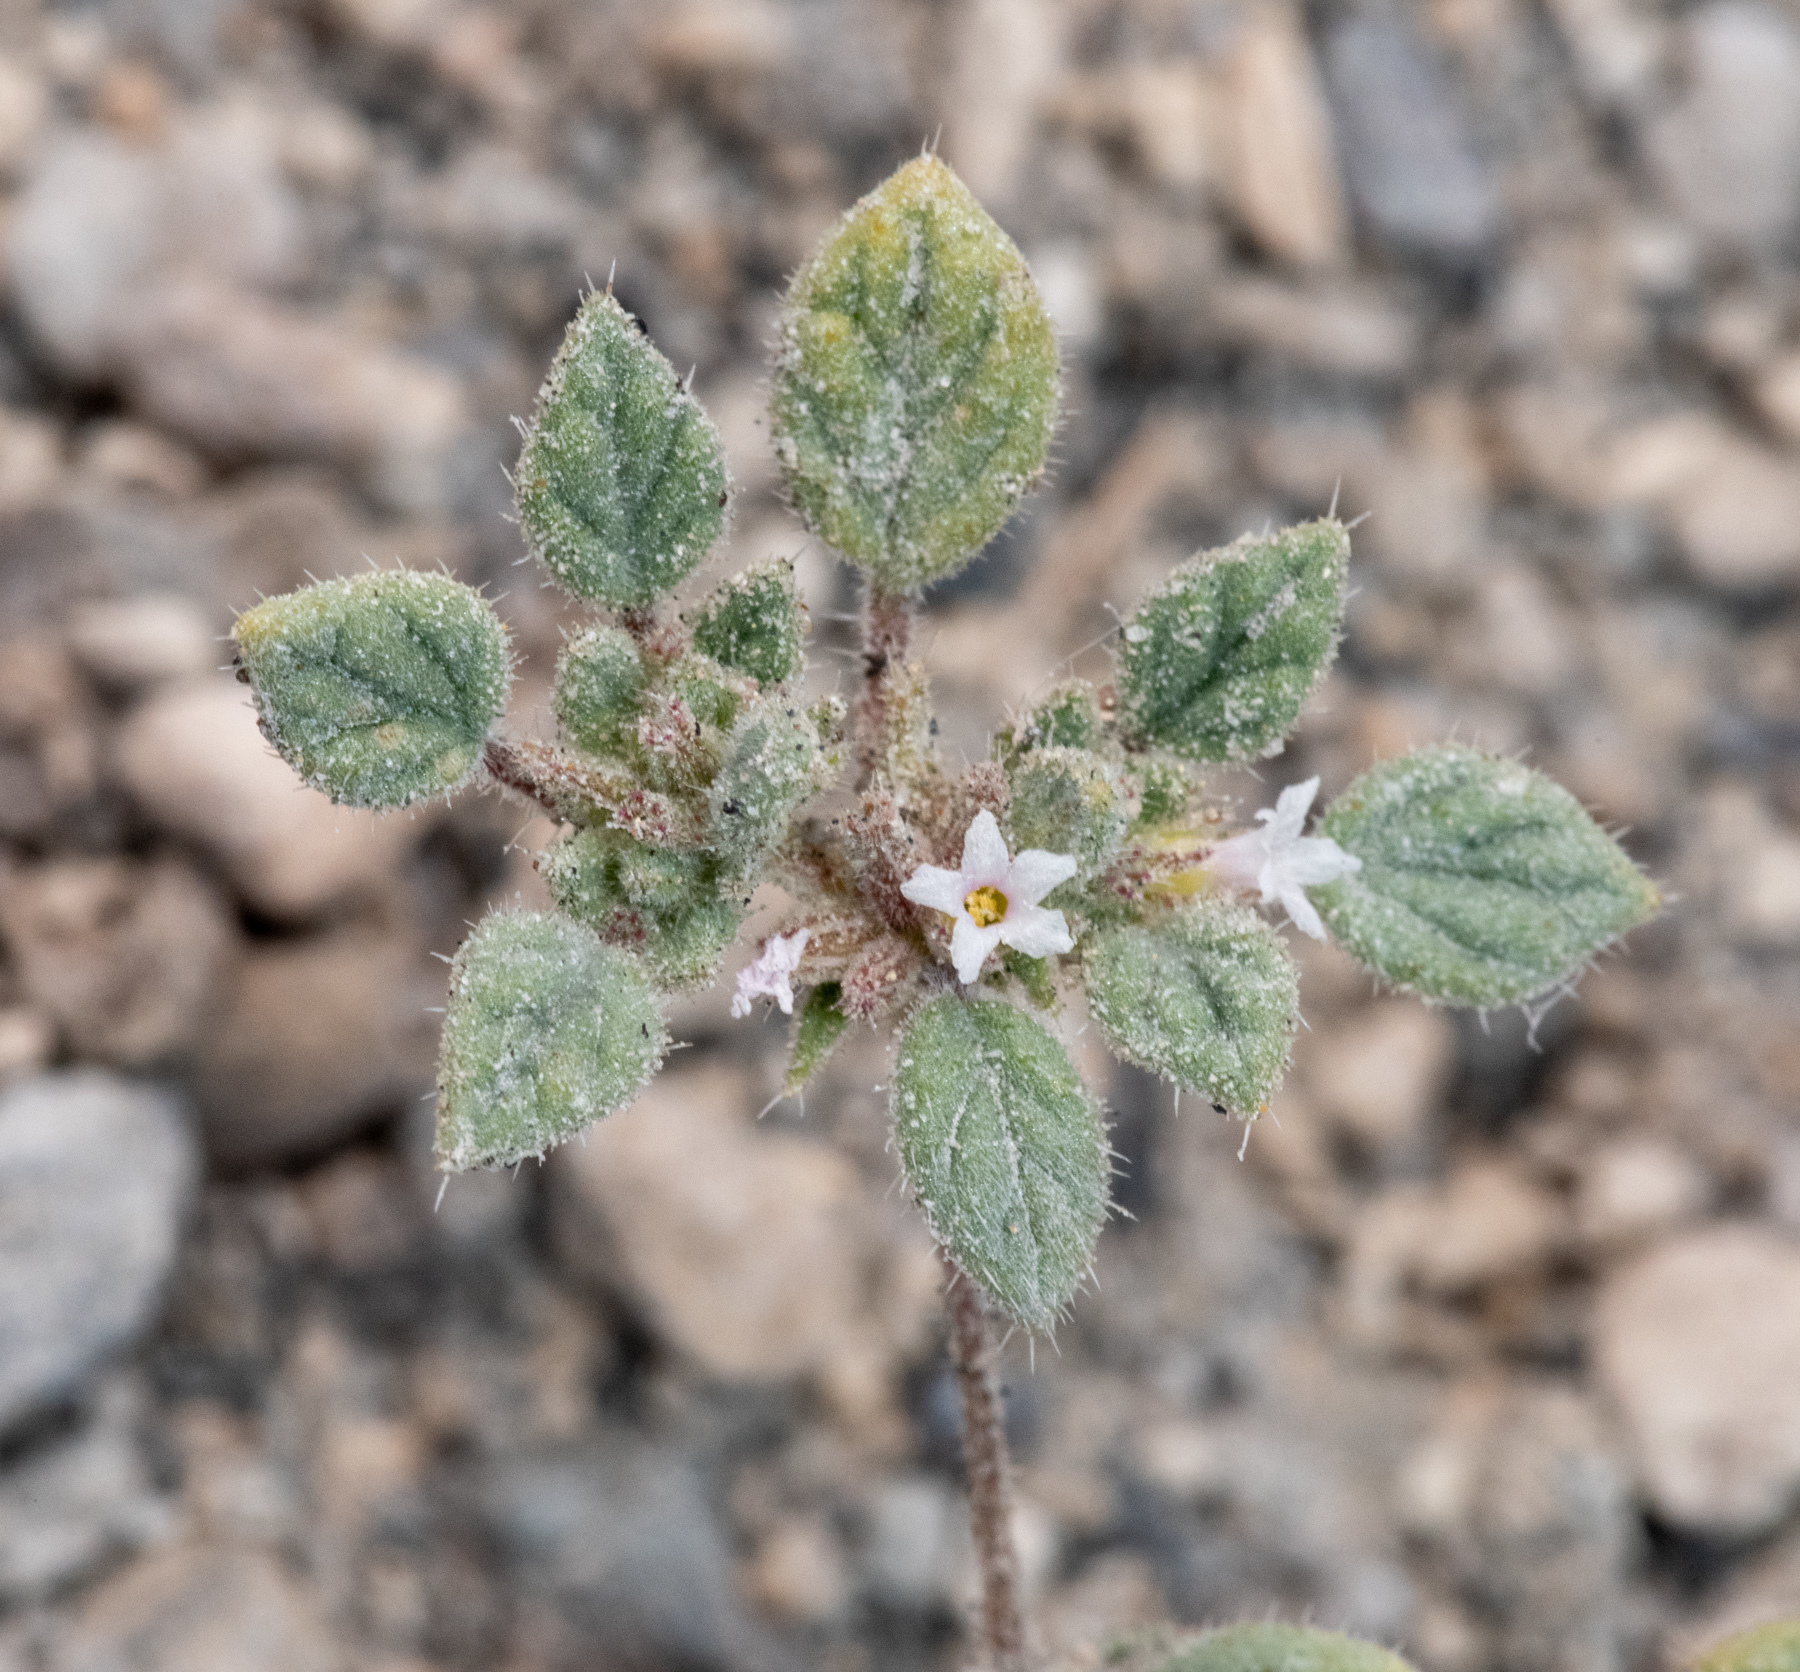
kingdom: Plantae
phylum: Tracheophyta
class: Magnoliopsida
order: Boraginales
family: Ehretiaceae
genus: Tiquilia
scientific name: Tiquilia nuttallii
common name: Rosette tiquilia
